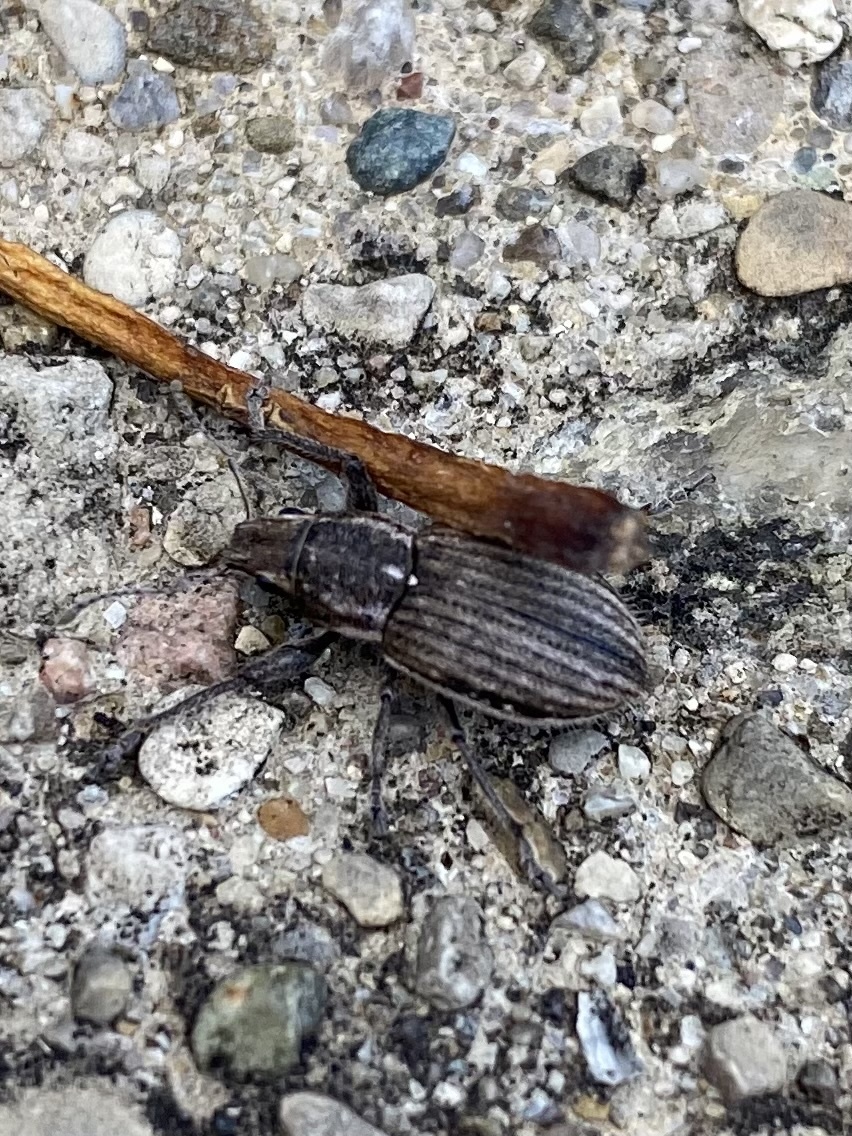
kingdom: Animalia
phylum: Arthropoda
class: Insecta
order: Coleoptera
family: Curculionidae
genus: Naupactus
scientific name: Naupactus leucoloma
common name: Whitefringed beetle
